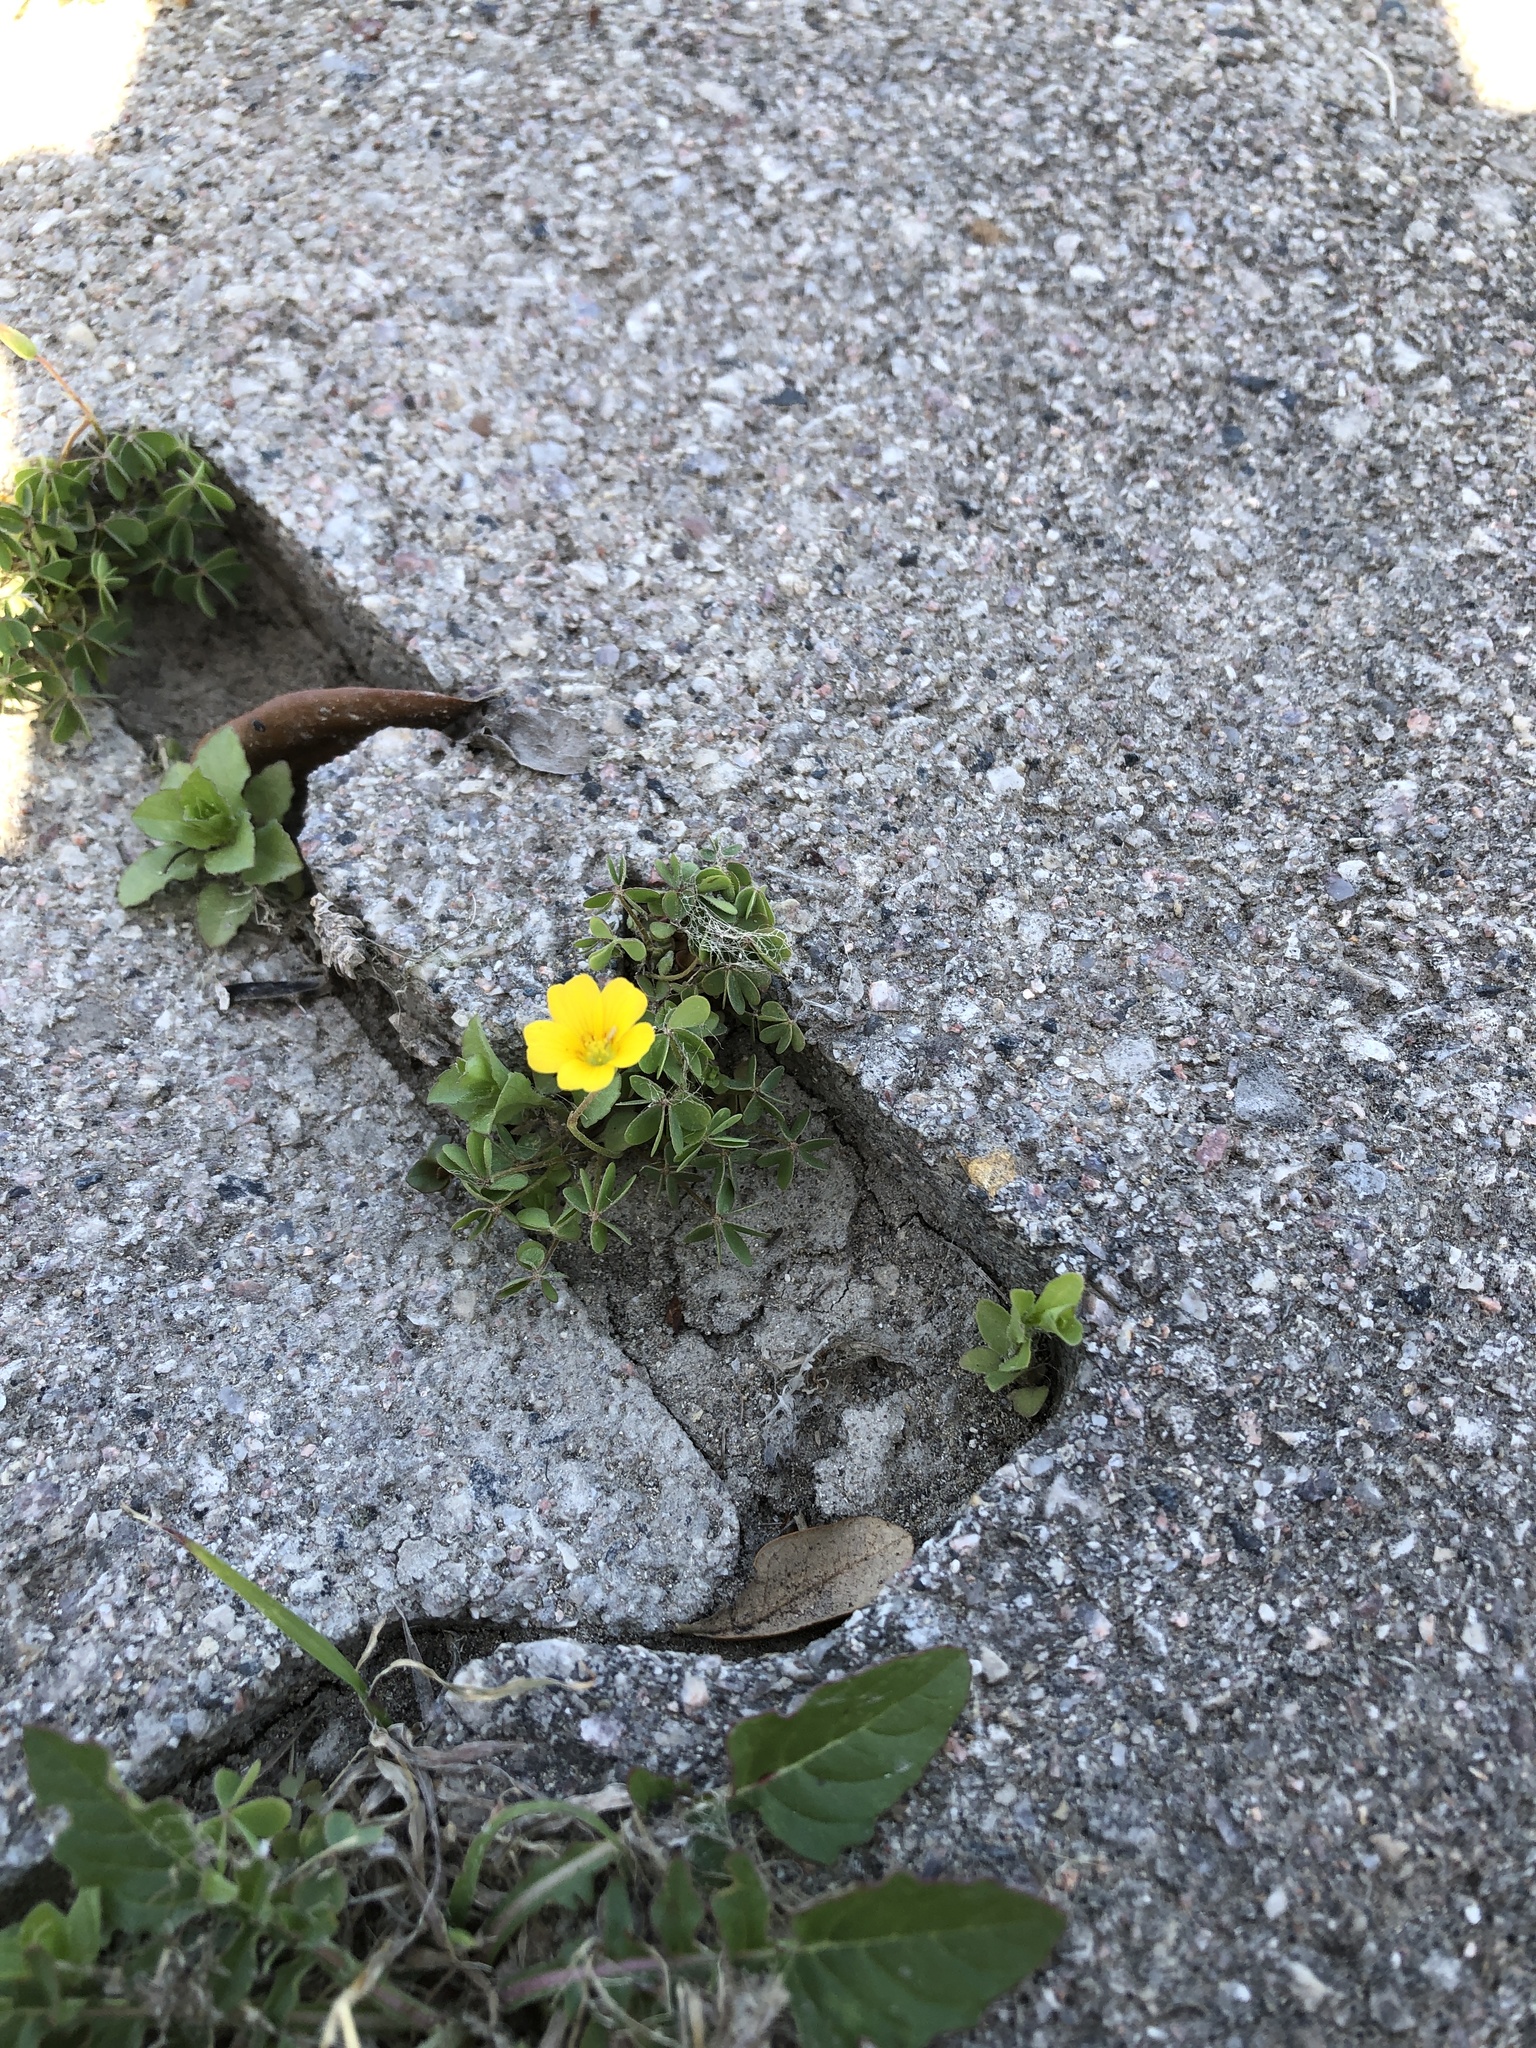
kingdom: Plantae
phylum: Tracheophyta
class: Magnoliopsida
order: Oxalidales
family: Oxalidaceae
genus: Oxalis
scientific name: Oxalis dillenii
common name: Sussex yellow-sorrel
